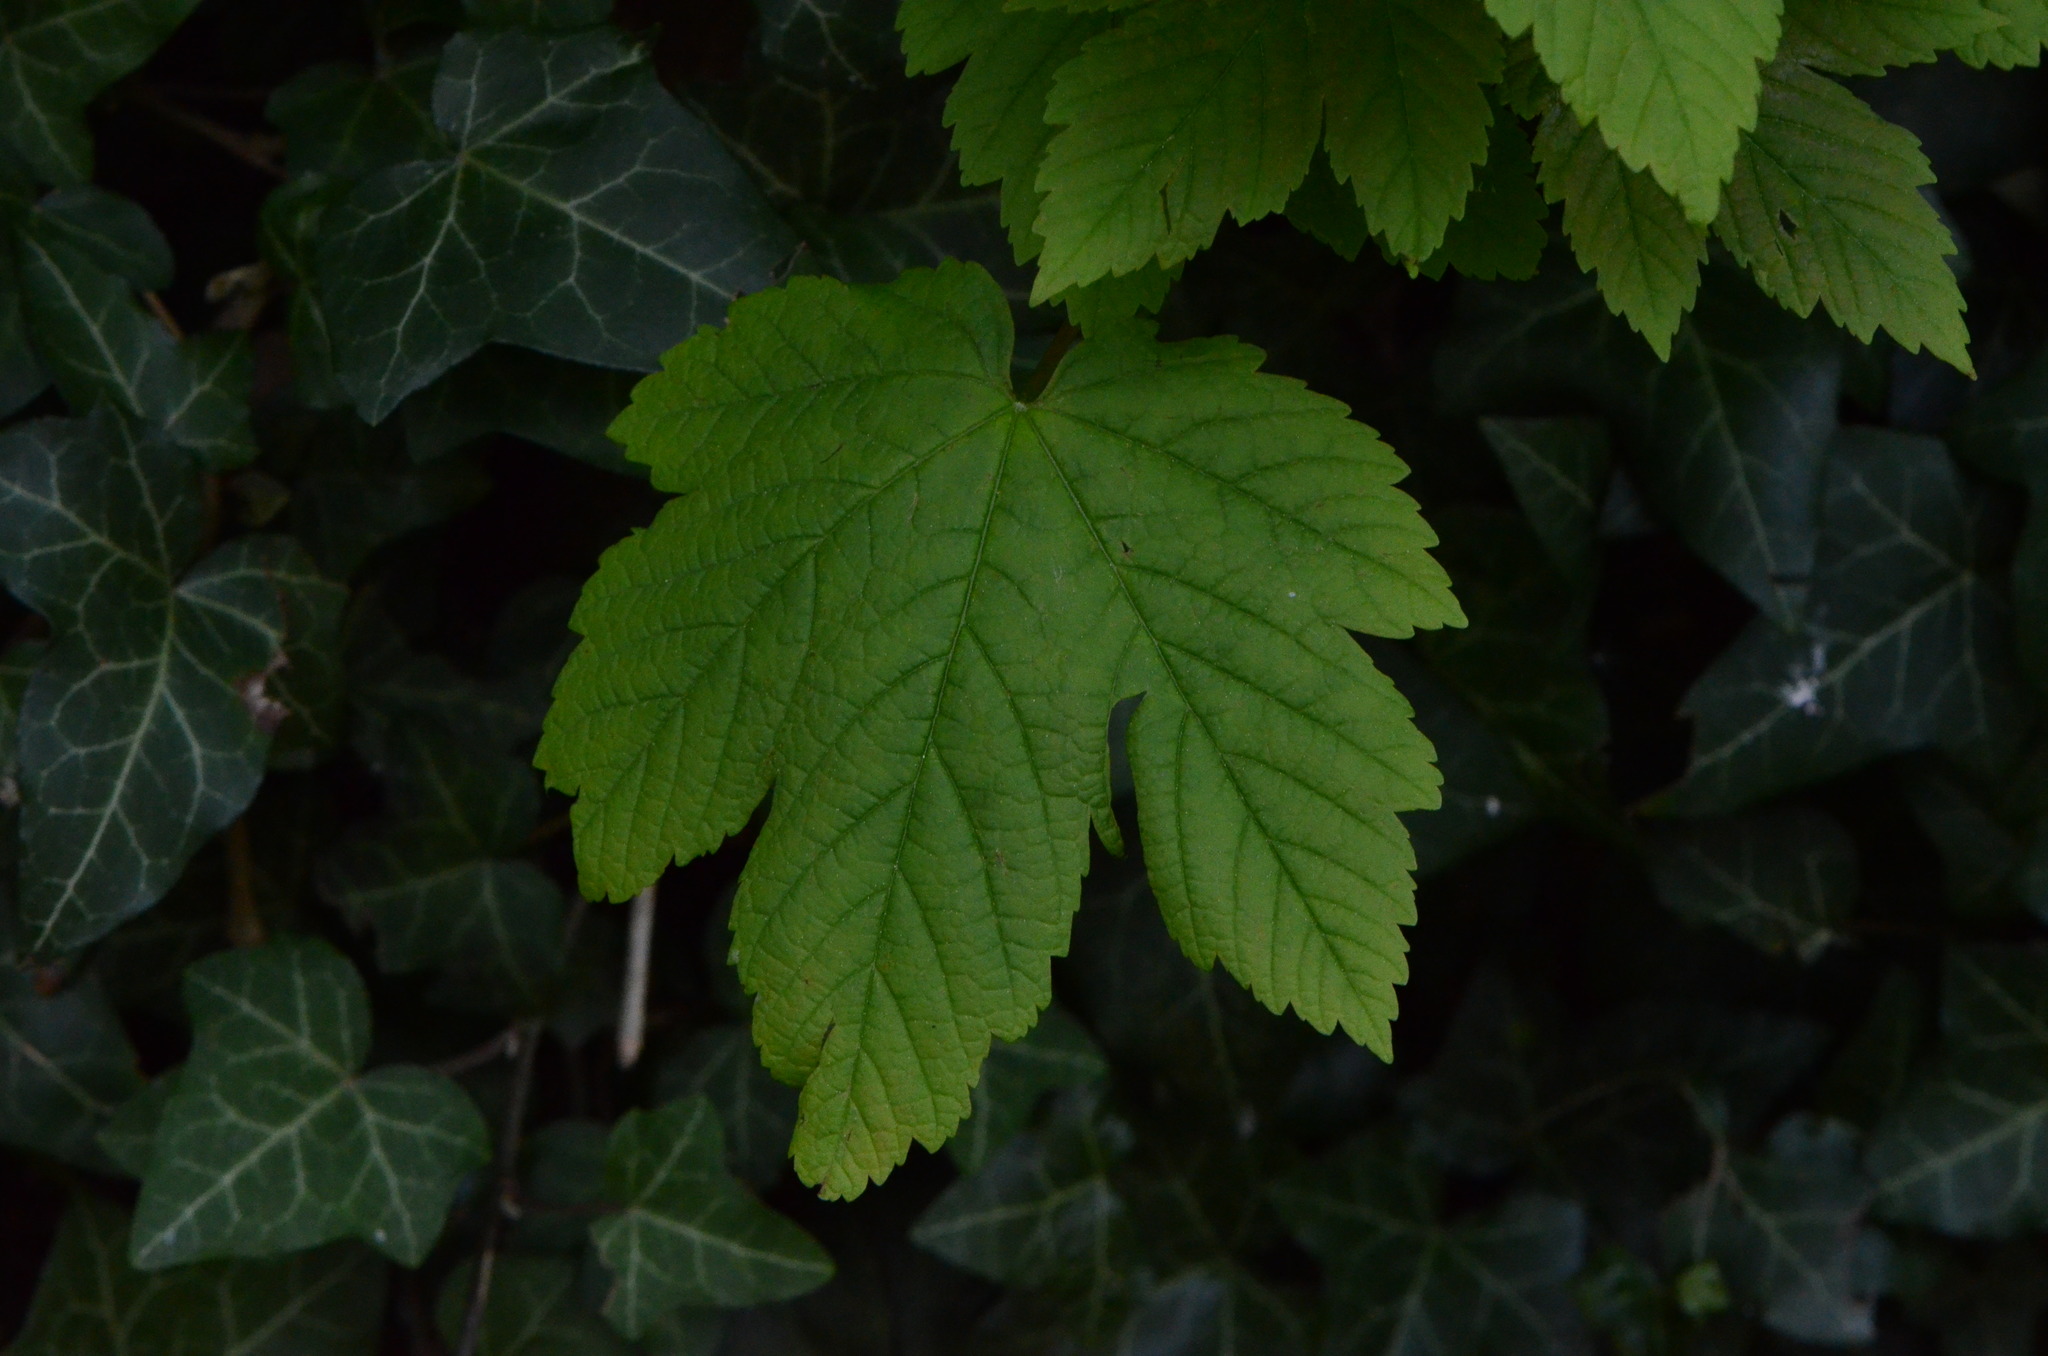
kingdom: Plantae
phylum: Tracheophyta
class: Magnoliopsida
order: Sapindales
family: Sapindaceae
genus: Acer
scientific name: Acer pseudoplatanus
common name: Sycamore
